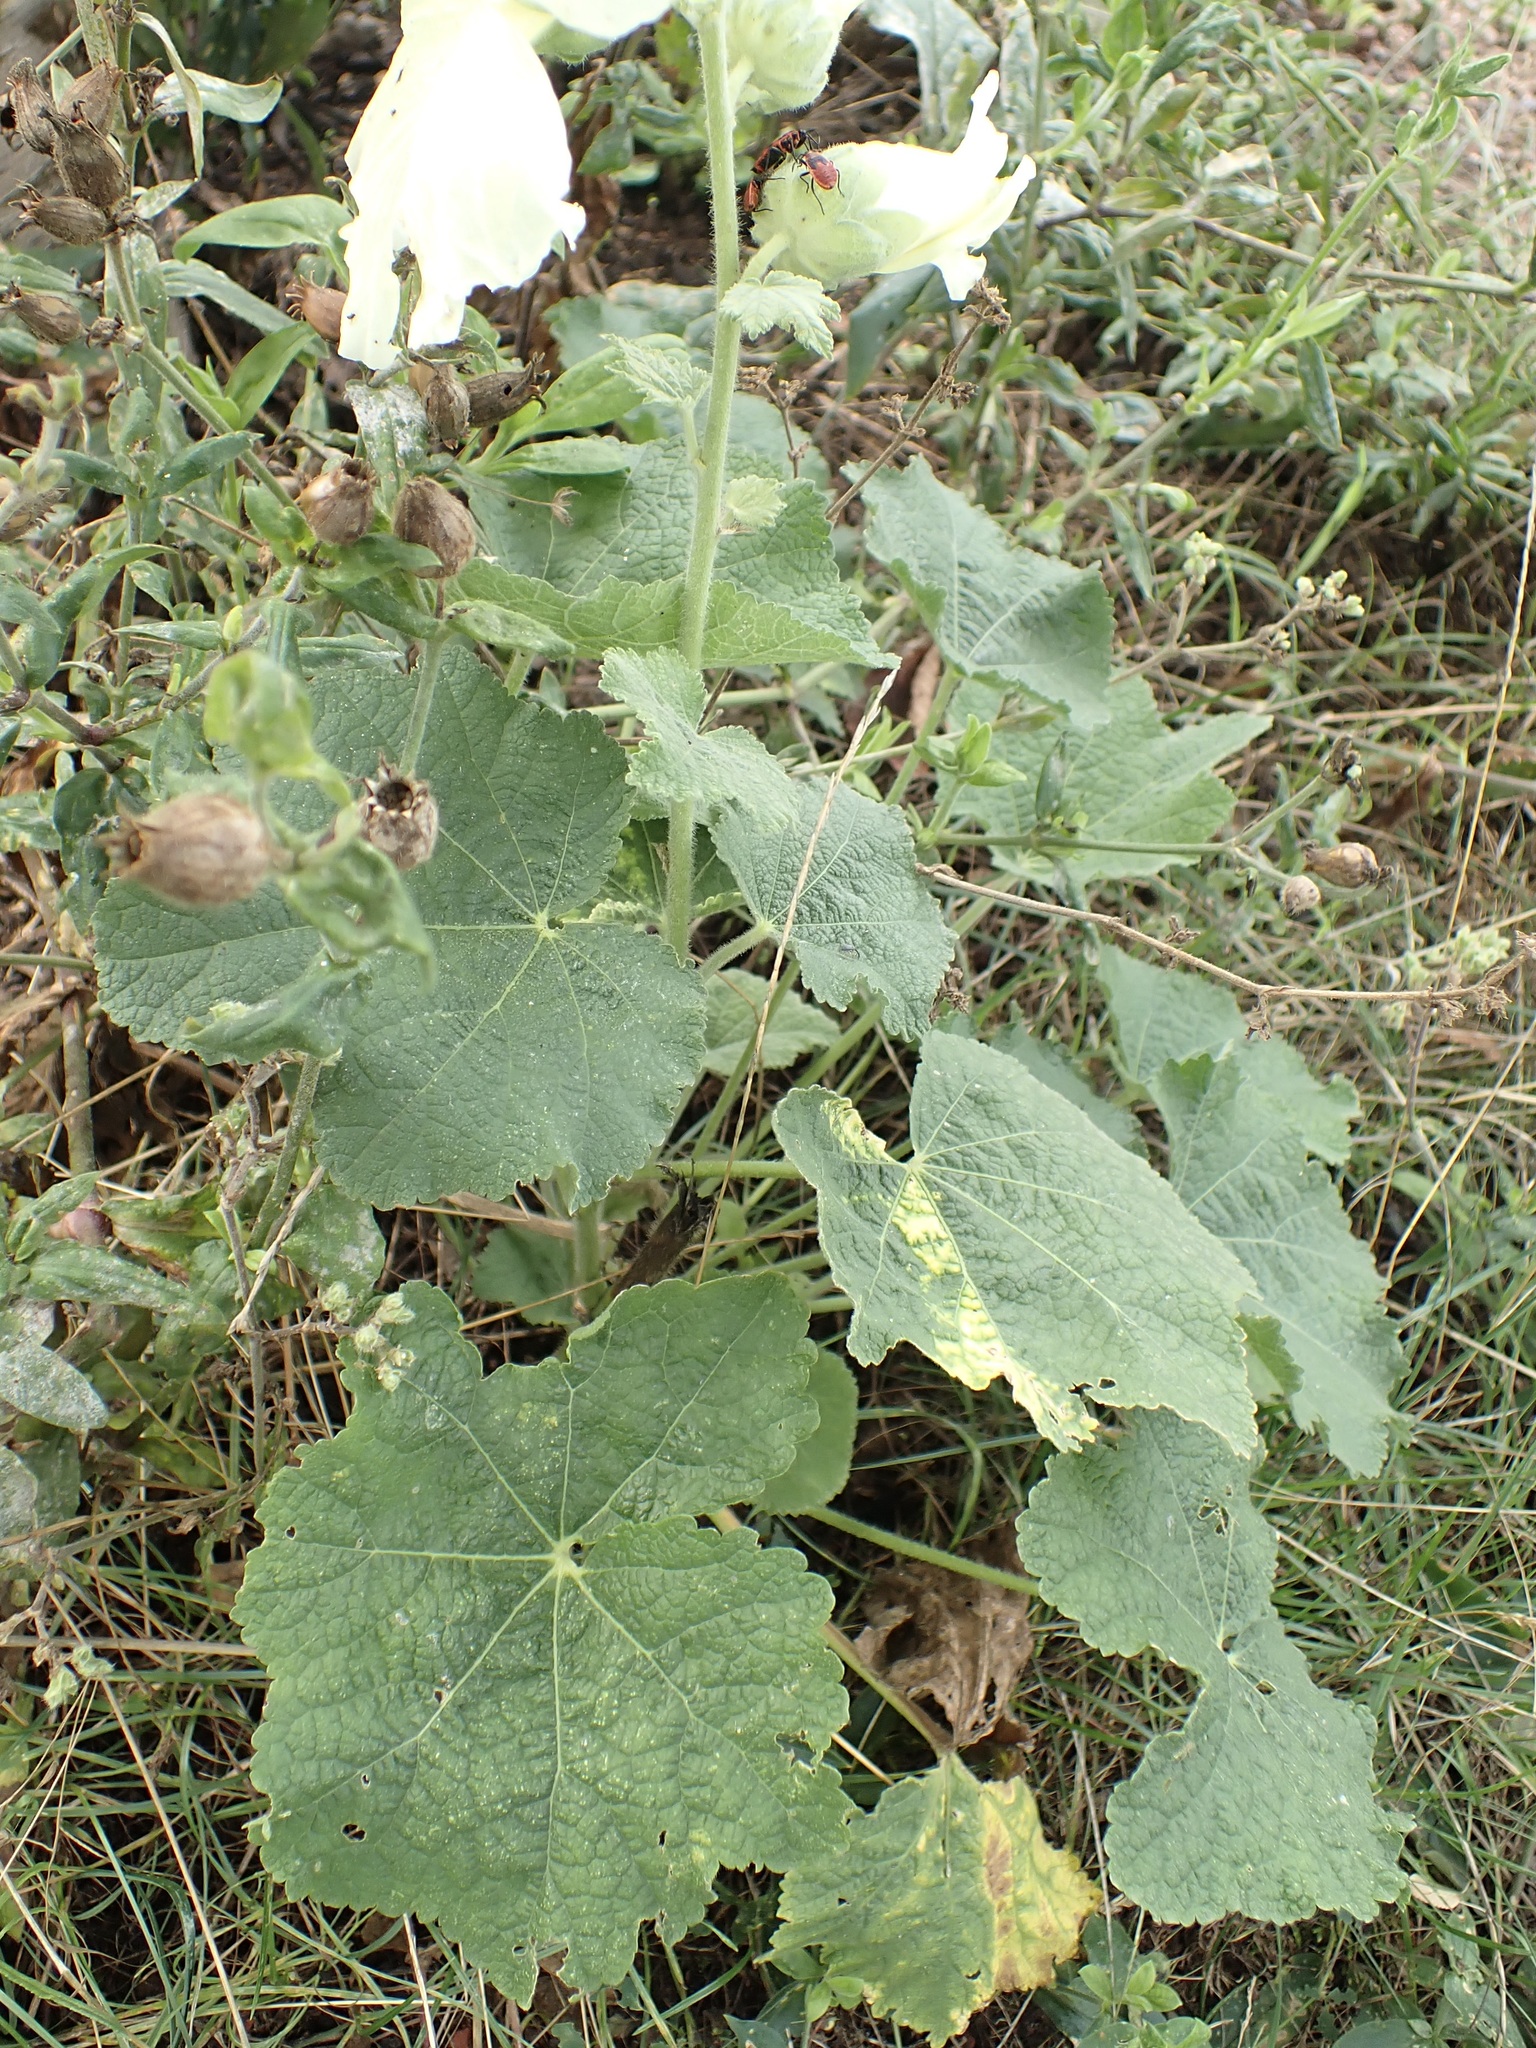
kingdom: Plantae
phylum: Tracheophyta
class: Magnoliopsida
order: Malvales
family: Malvaceae
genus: Alcea
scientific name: Alcea rosea
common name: Hollyhock
